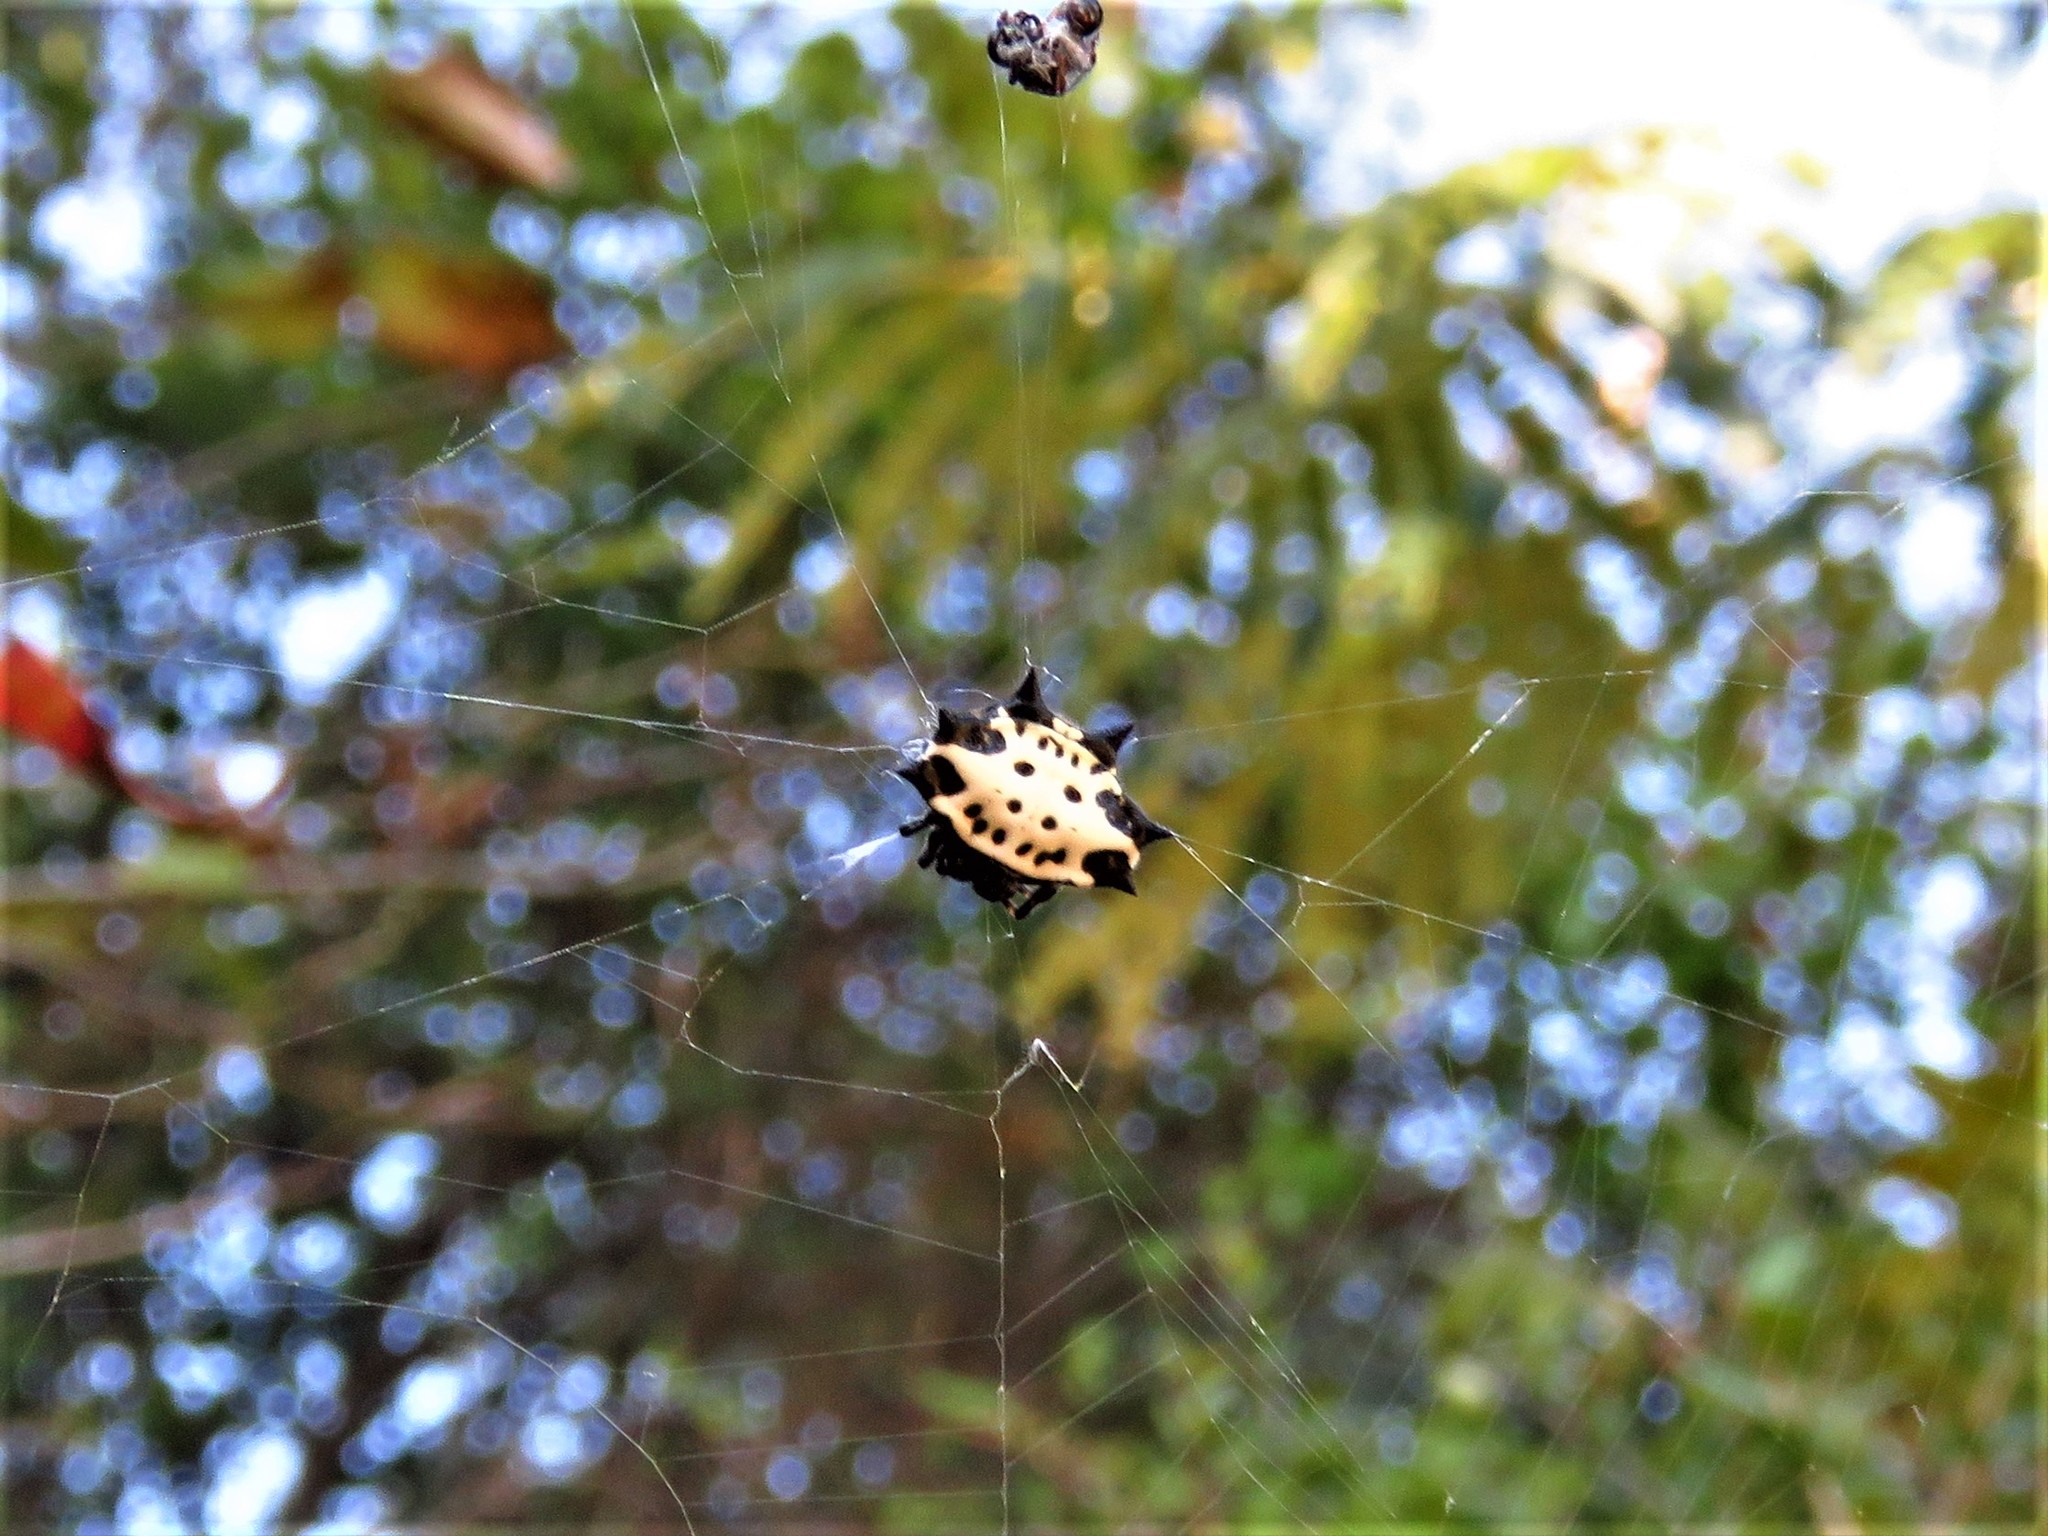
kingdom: Animalia
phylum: Arthropoda
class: Arachnida
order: Araneae
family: Araneidae
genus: Gasteracantha
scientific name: Gasteracantha cancriformis
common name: Orb weavers
